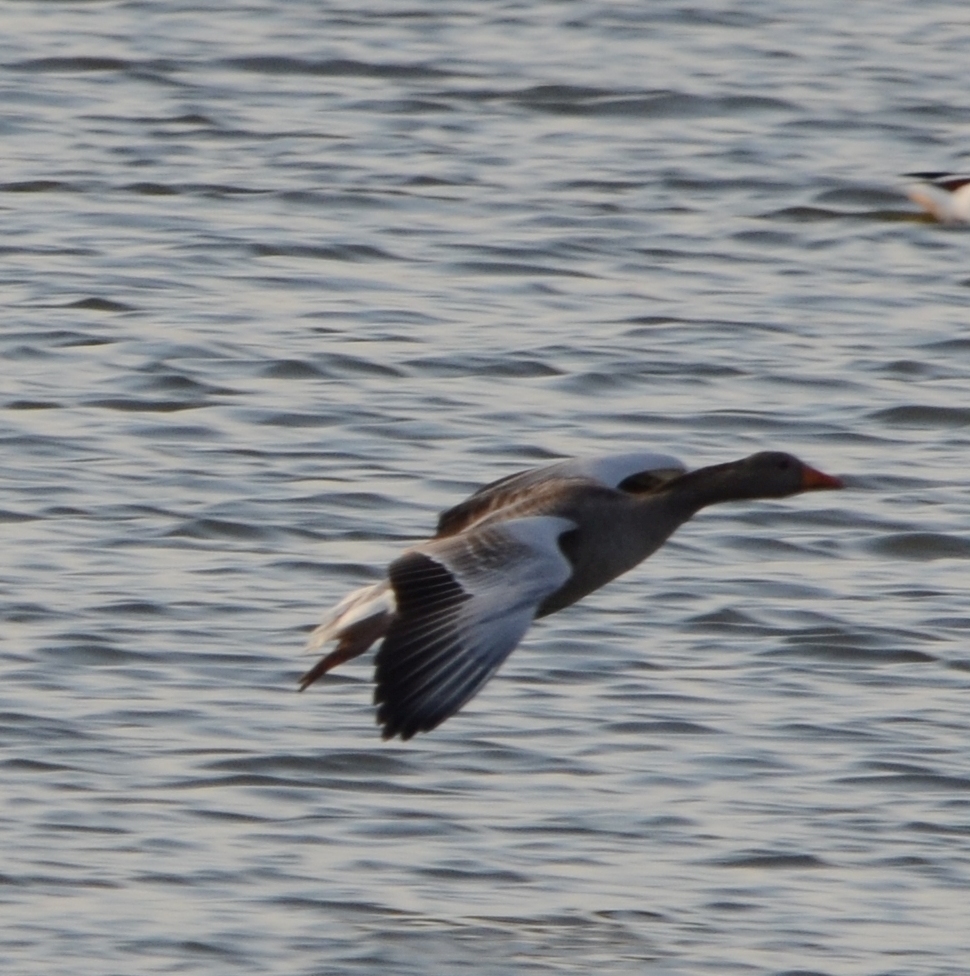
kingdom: Animalia
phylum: Chordata
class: Aves
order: Anseriformes
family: Anatidae
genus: Anser
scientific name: Anser anser
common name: Greylag goose
